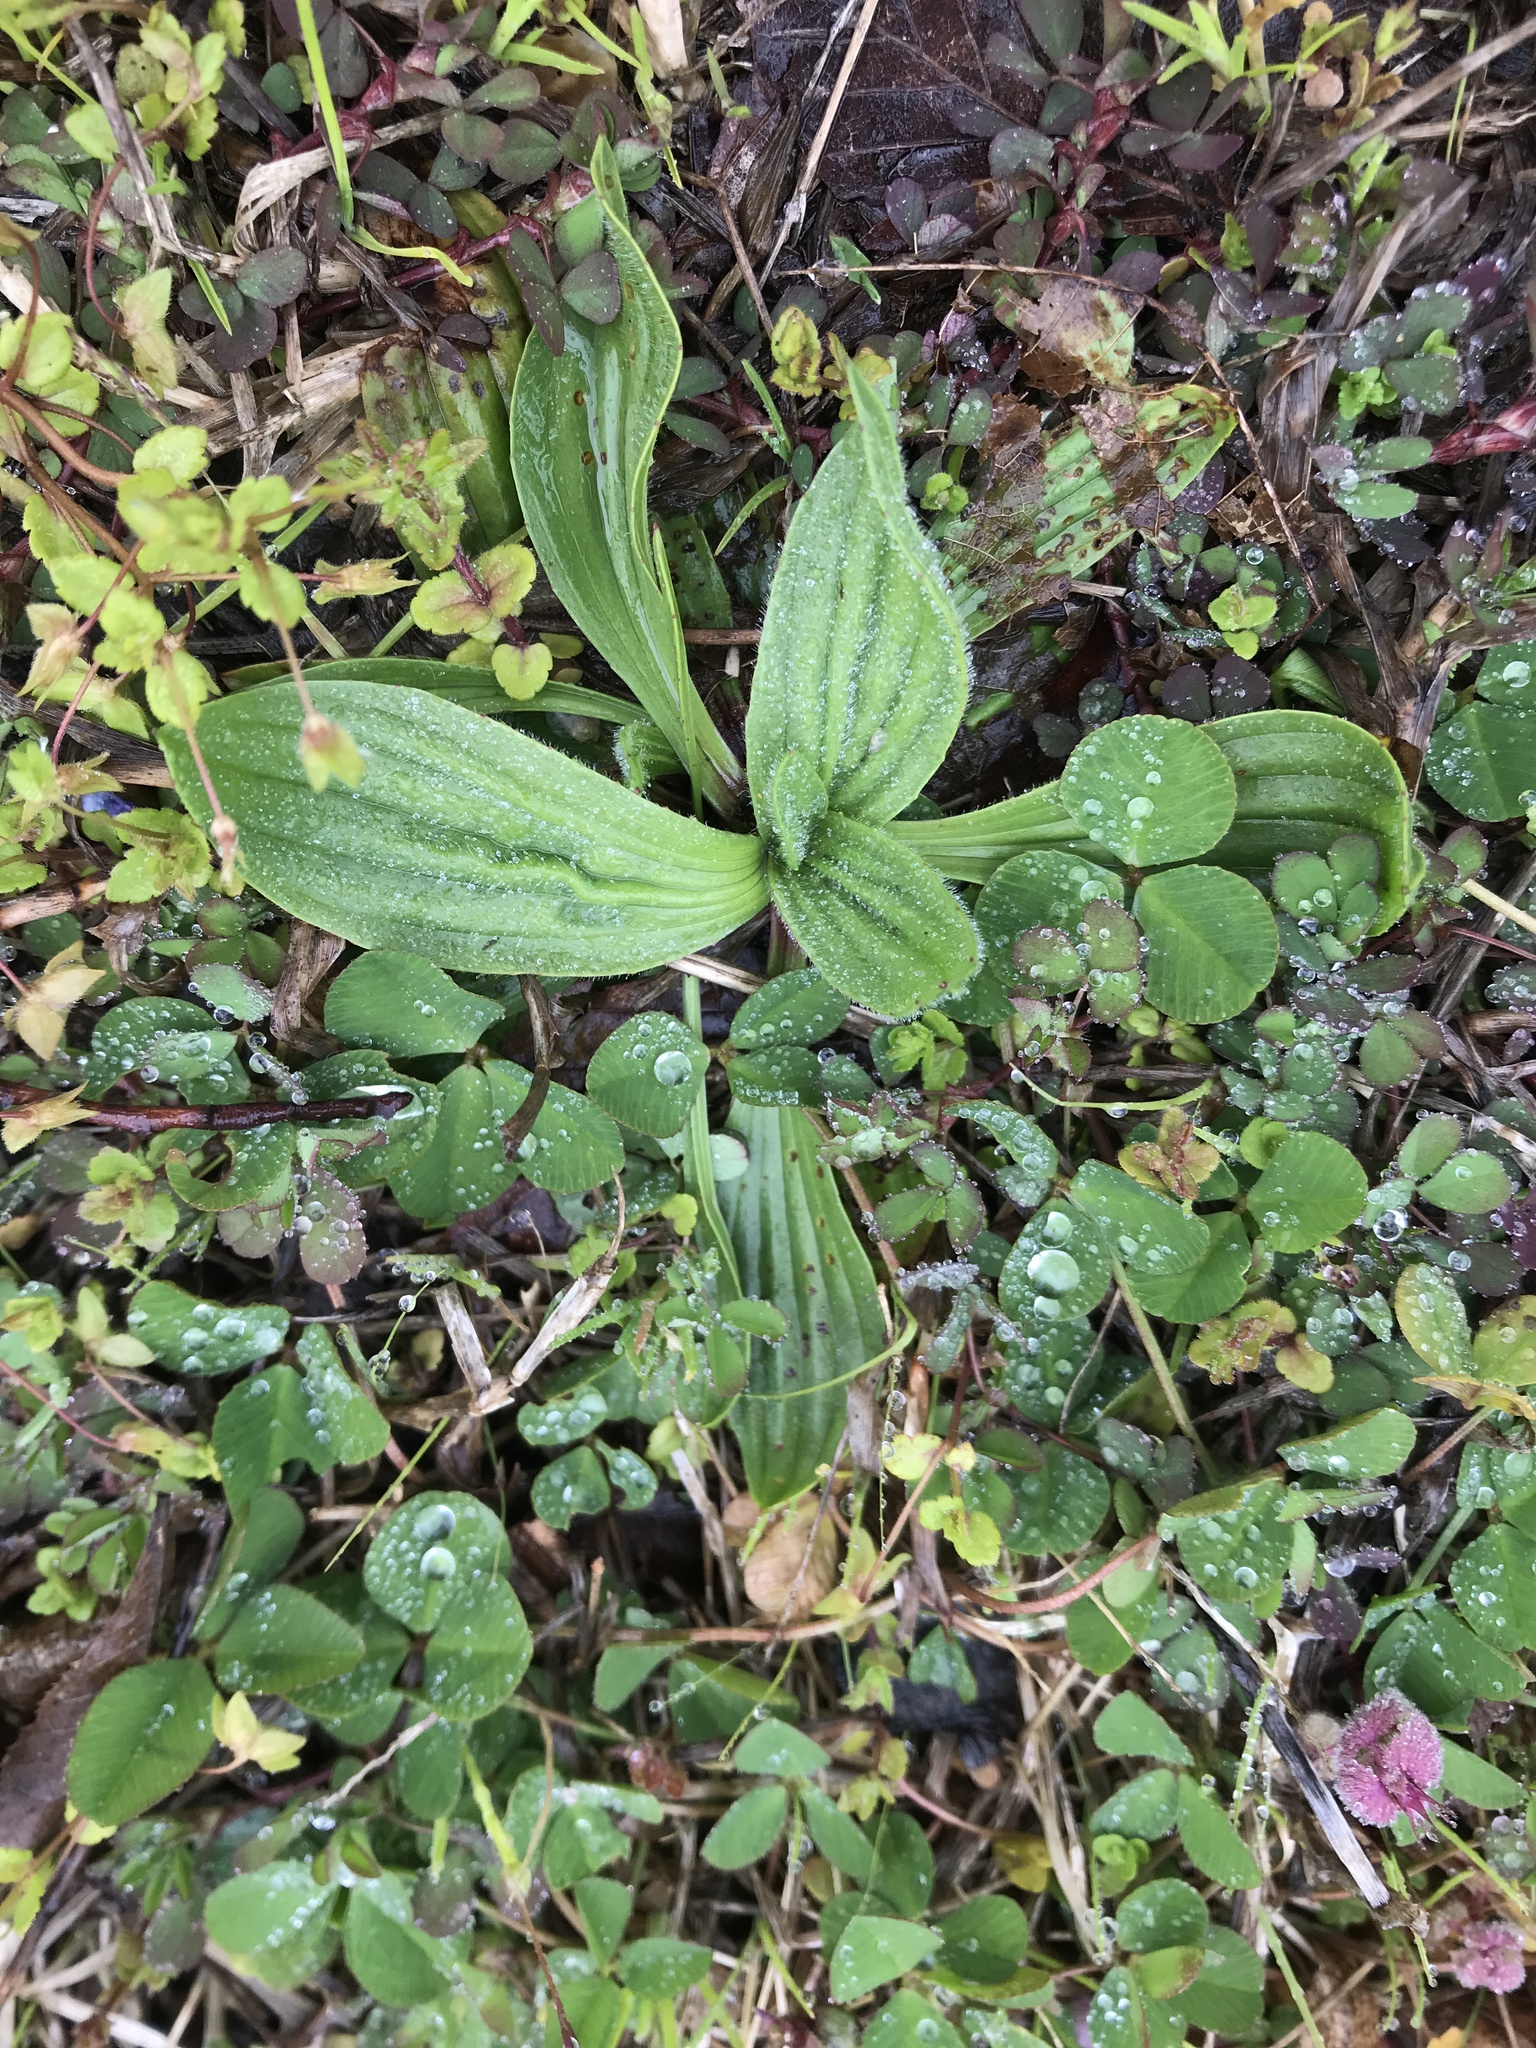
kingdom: Plantae
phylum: Tracheophyta
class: Magnoliopsida
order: Lamiales
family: Plantaginaceae
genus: Plantago
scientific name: Plantago lanceolata
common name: Ribwort plantain
